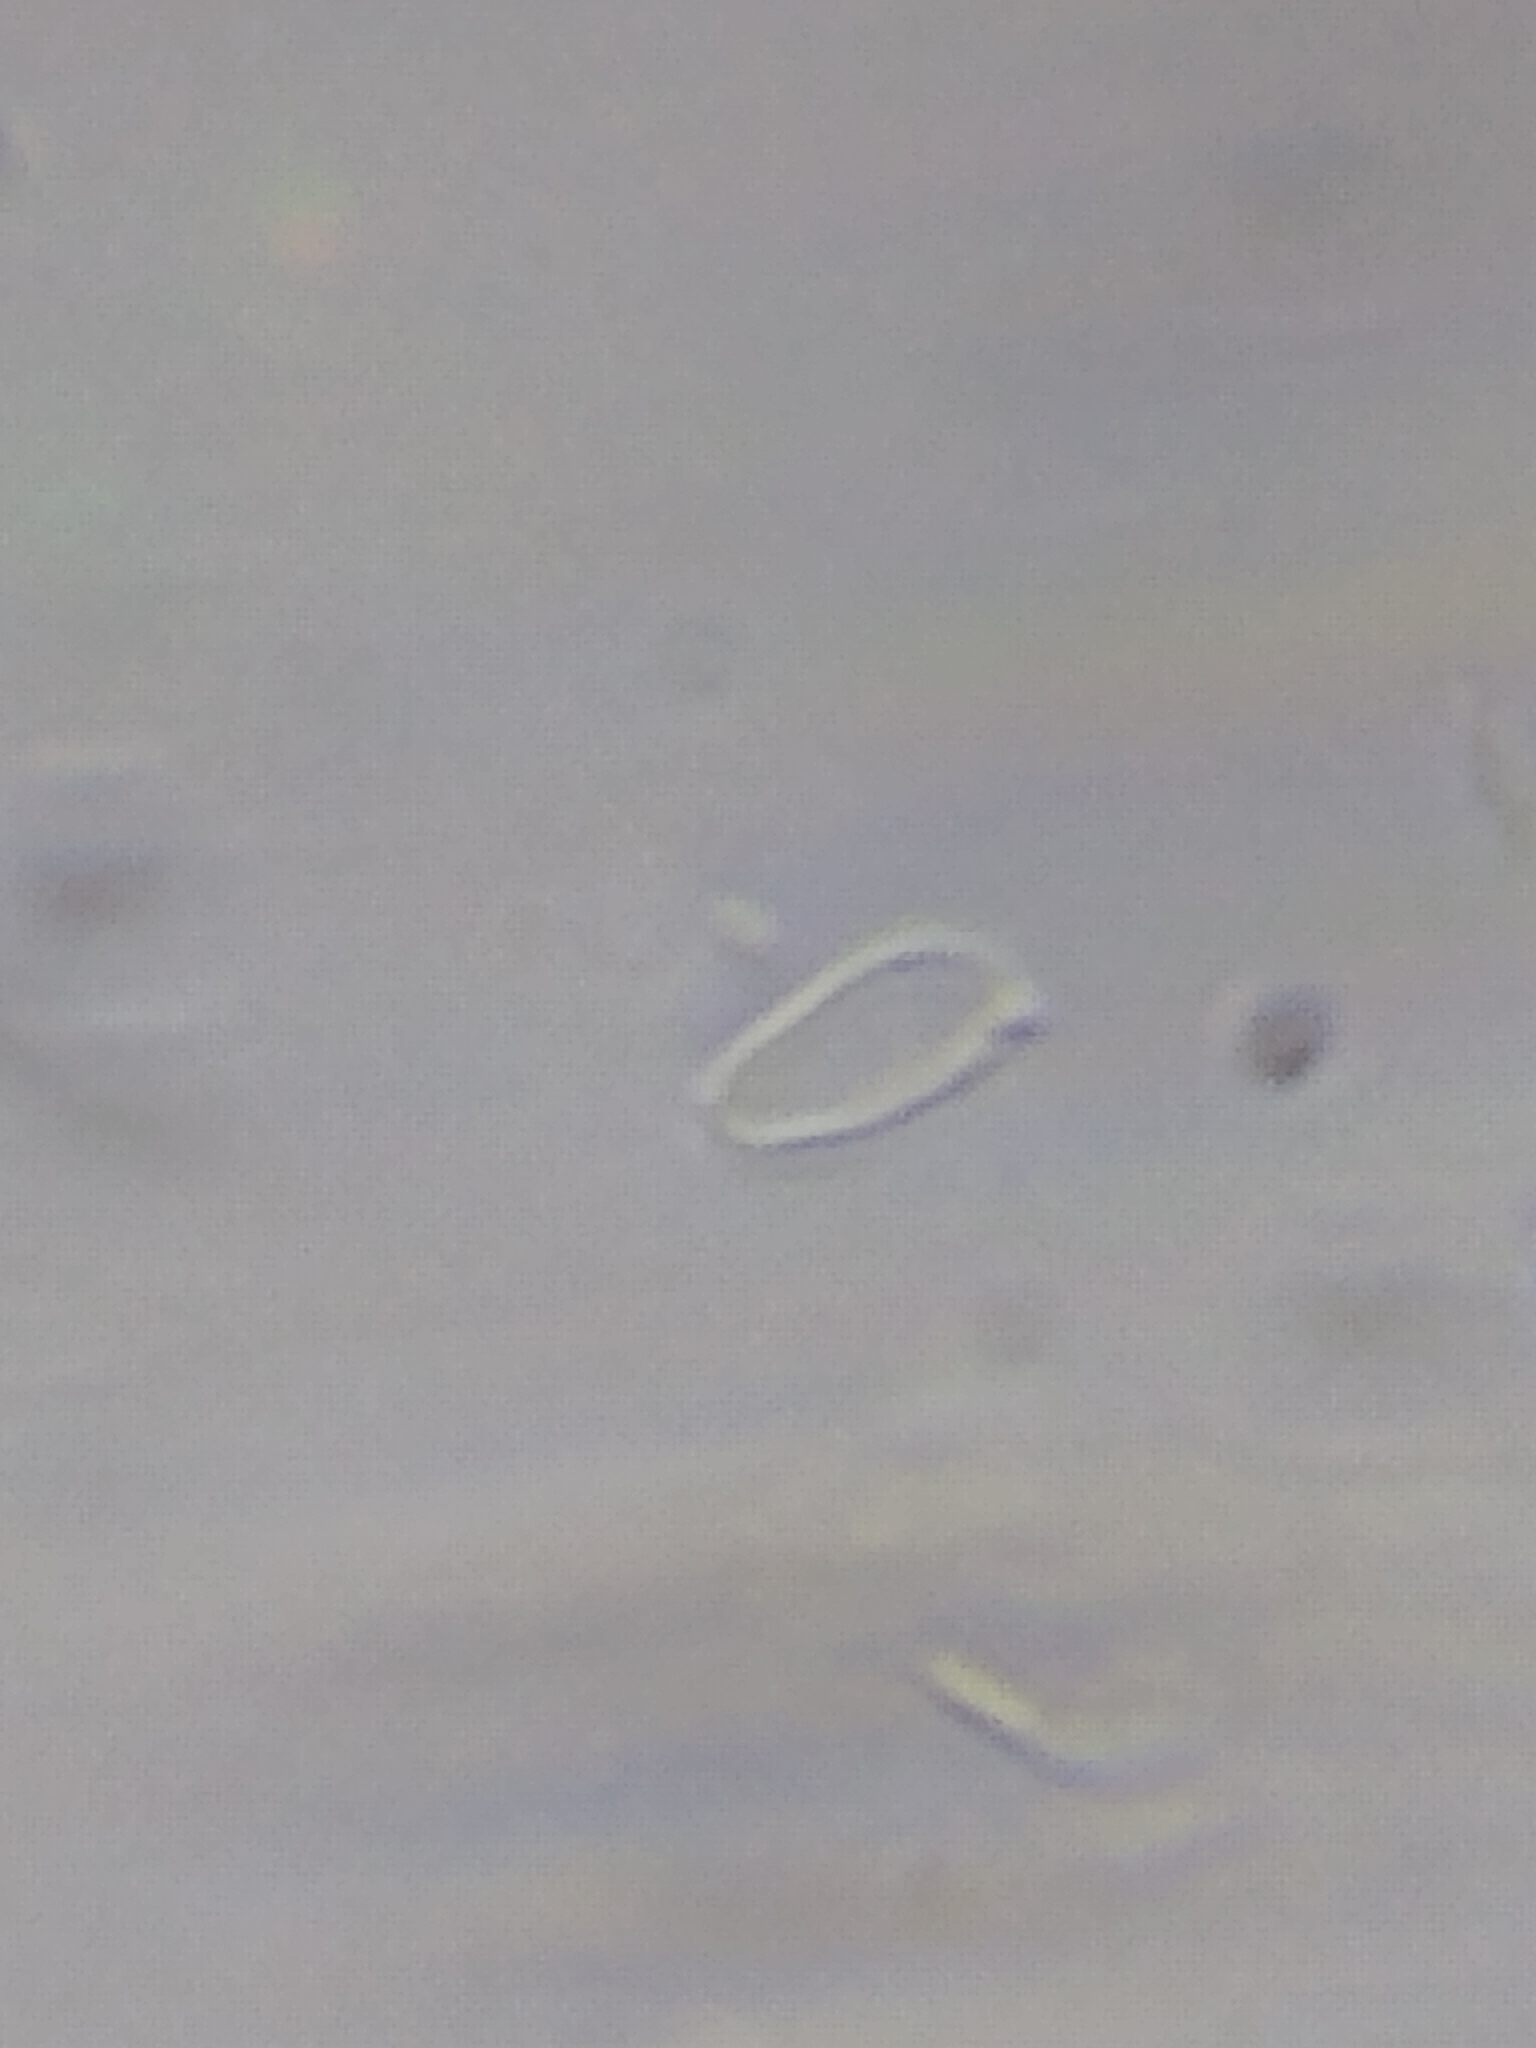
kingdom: Fungi
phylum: Basidiomycota
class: Agaricomycetes
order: Cantharellales
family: Hydnaceae
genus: Sistotrema
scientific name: Sistotrema raduloides
